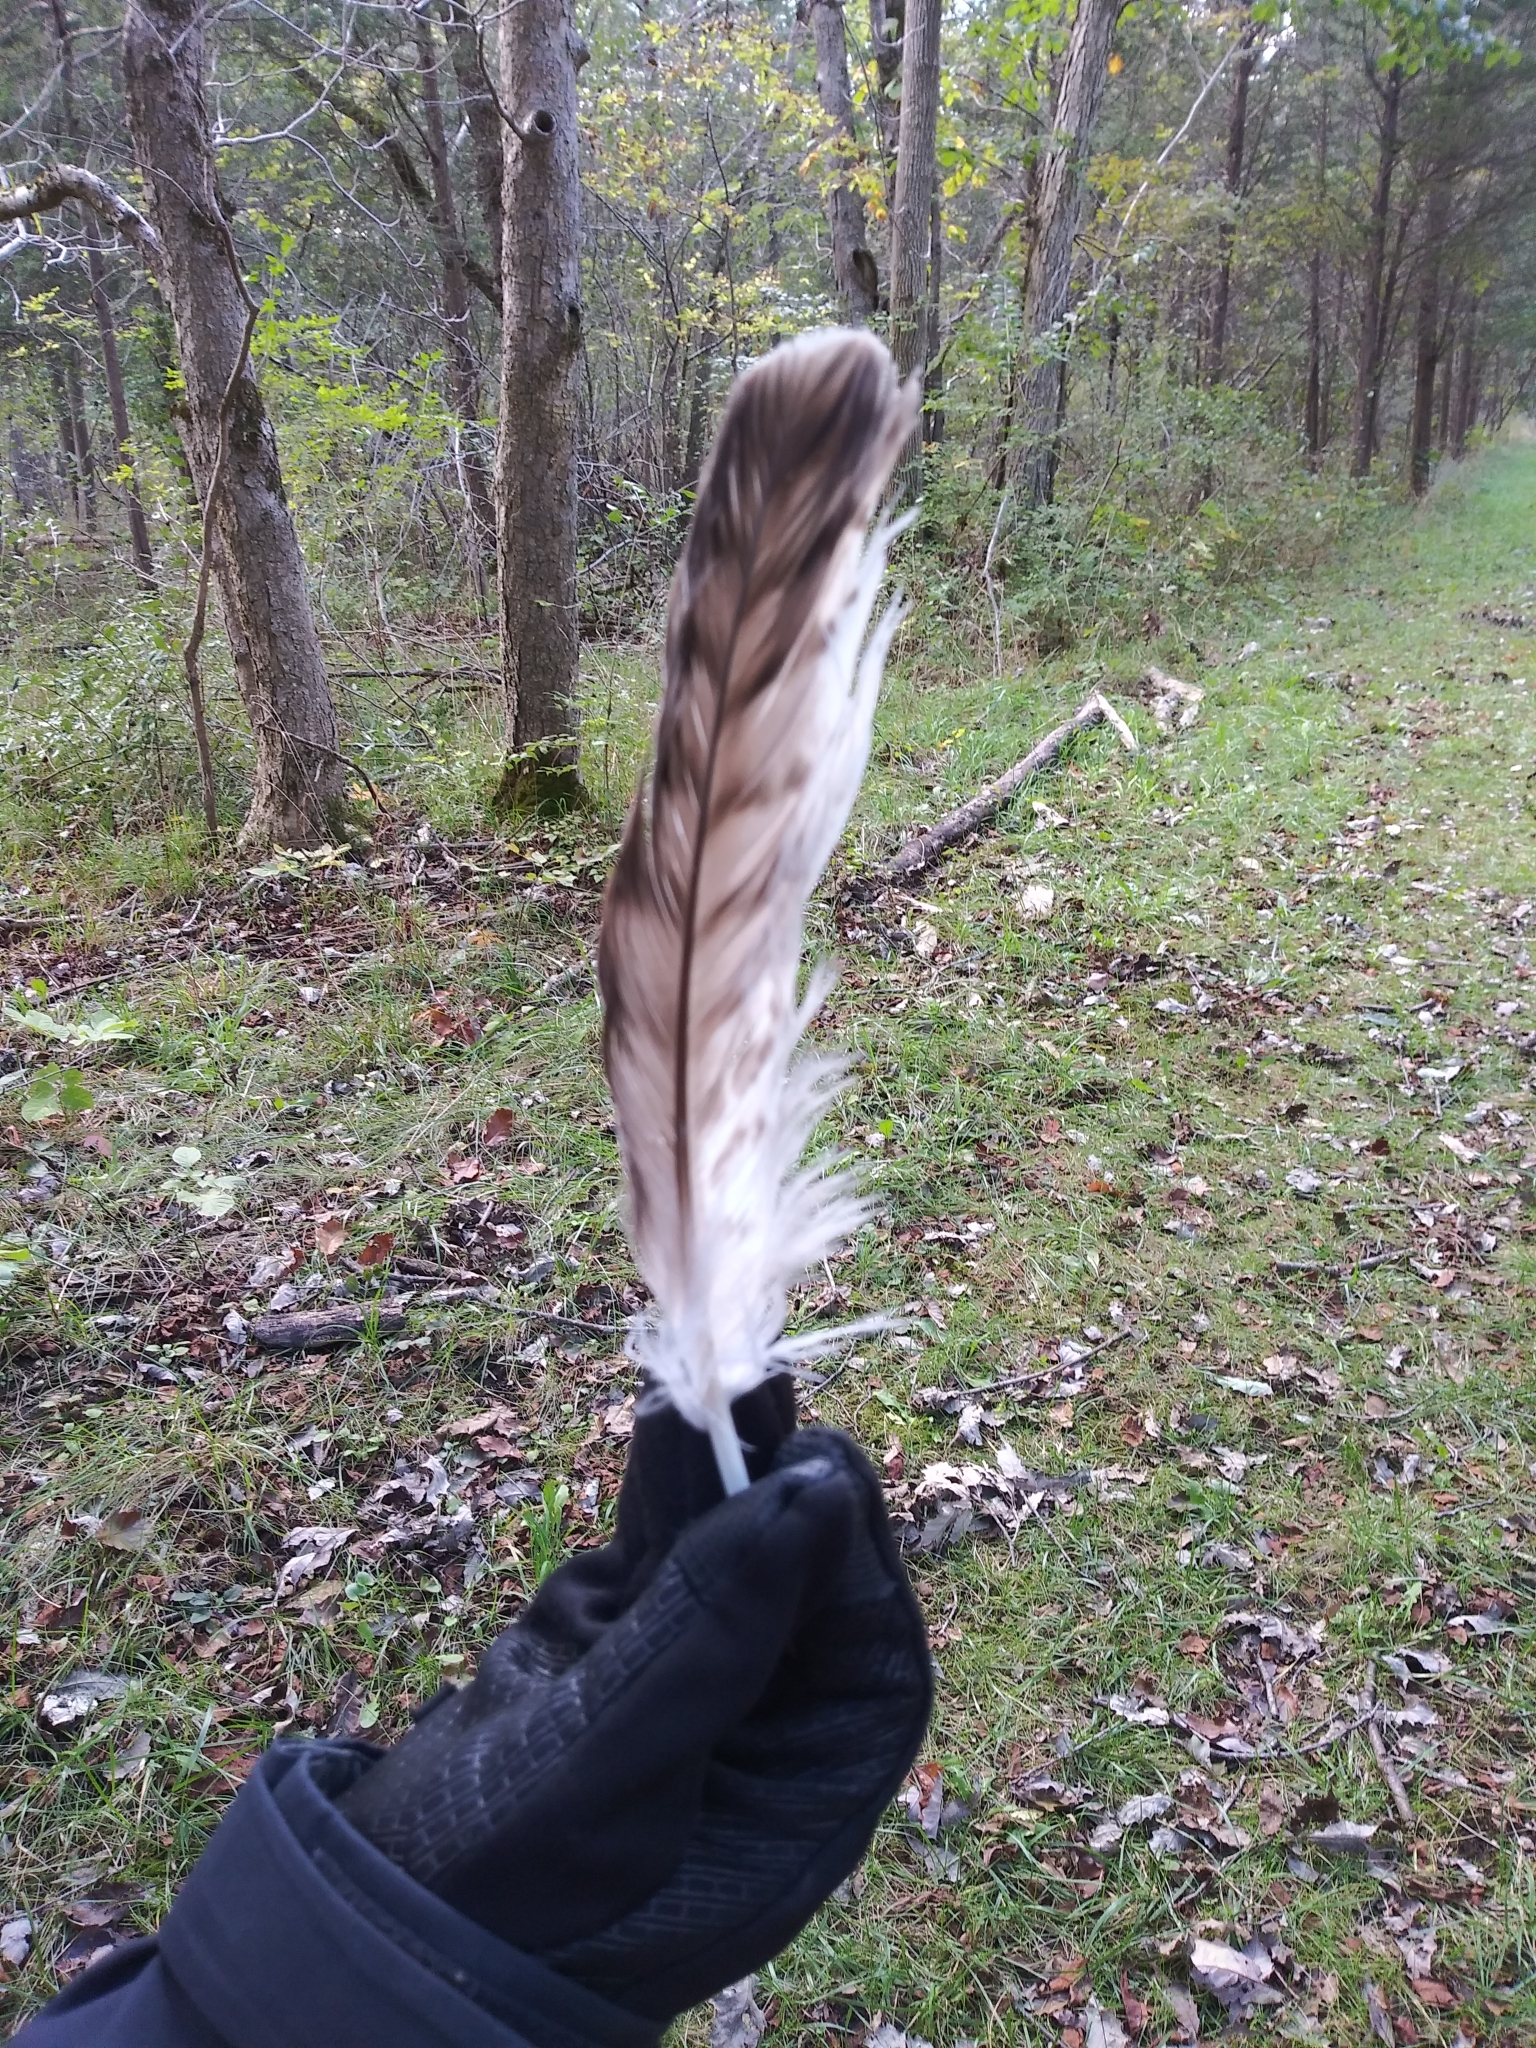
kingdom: Animalia
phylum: Chordata
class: Aves
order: Accipitriformes
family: Accipitridae
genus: Buteo
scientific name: Buteo jamaicensis
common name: Red-tailed hawk
